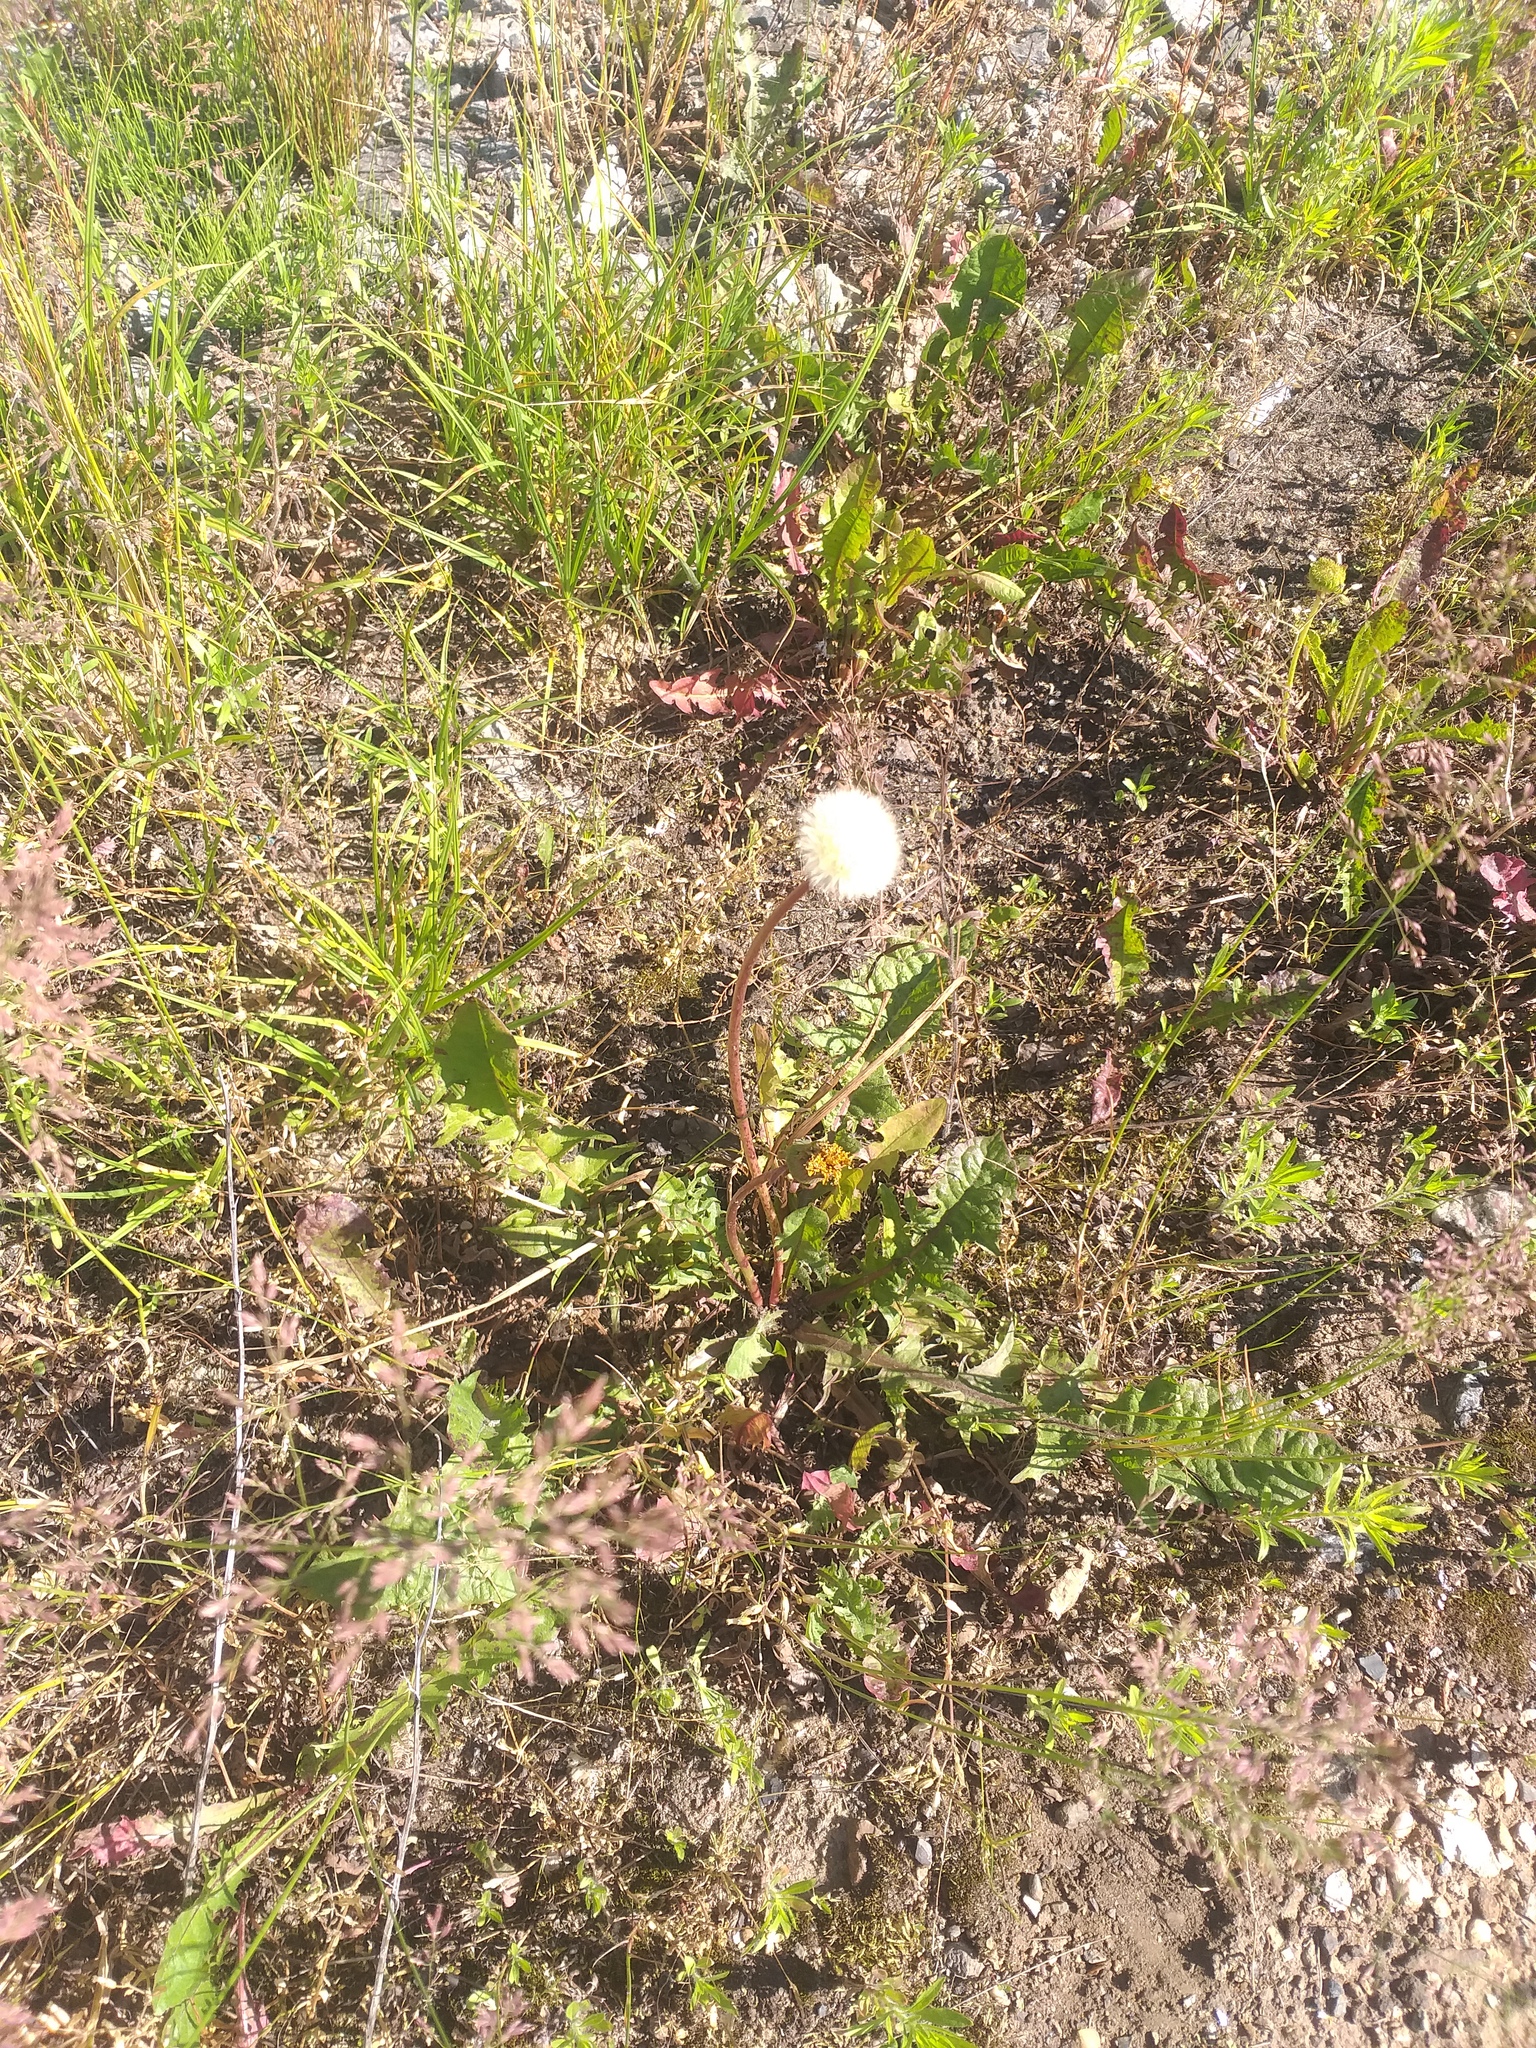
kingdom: Plantae
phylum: Tracheophyta
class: Magnoliopsida
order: Asterales
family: Asteraceae
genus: Taraxacum
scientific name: Taraxacum officinale
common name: Common dandelion
